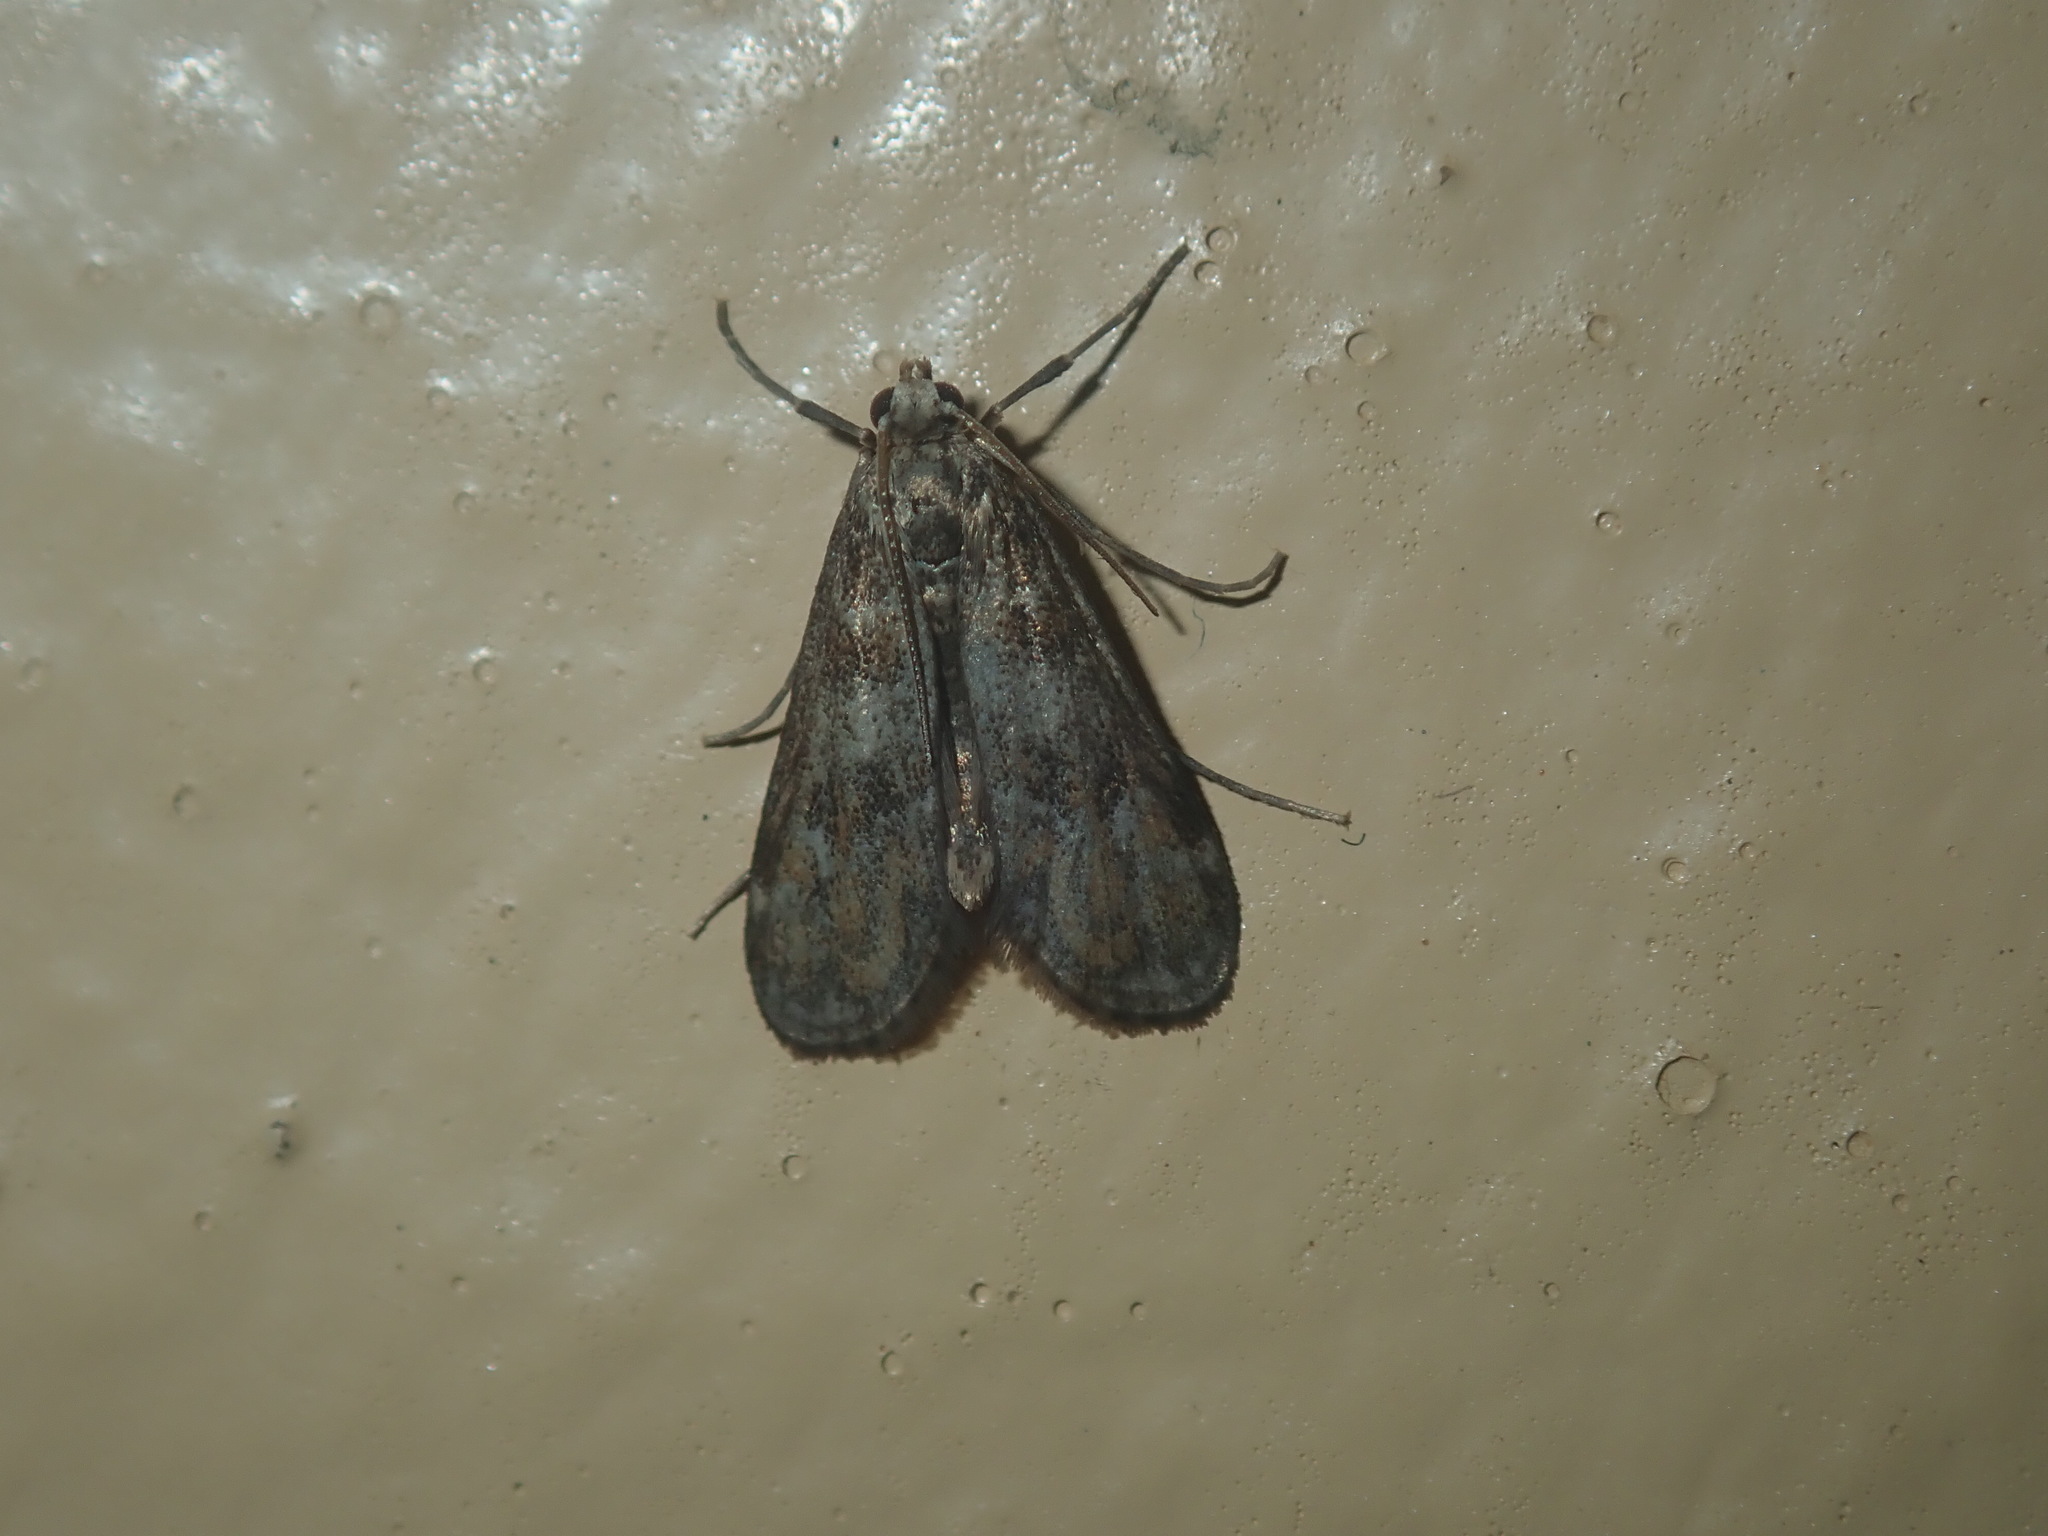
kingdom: Animalia
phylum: Arthropoda
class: Insecta
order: Lepidoptera
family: Crambidae
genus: Hygraula
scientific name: Hygraula nitens
